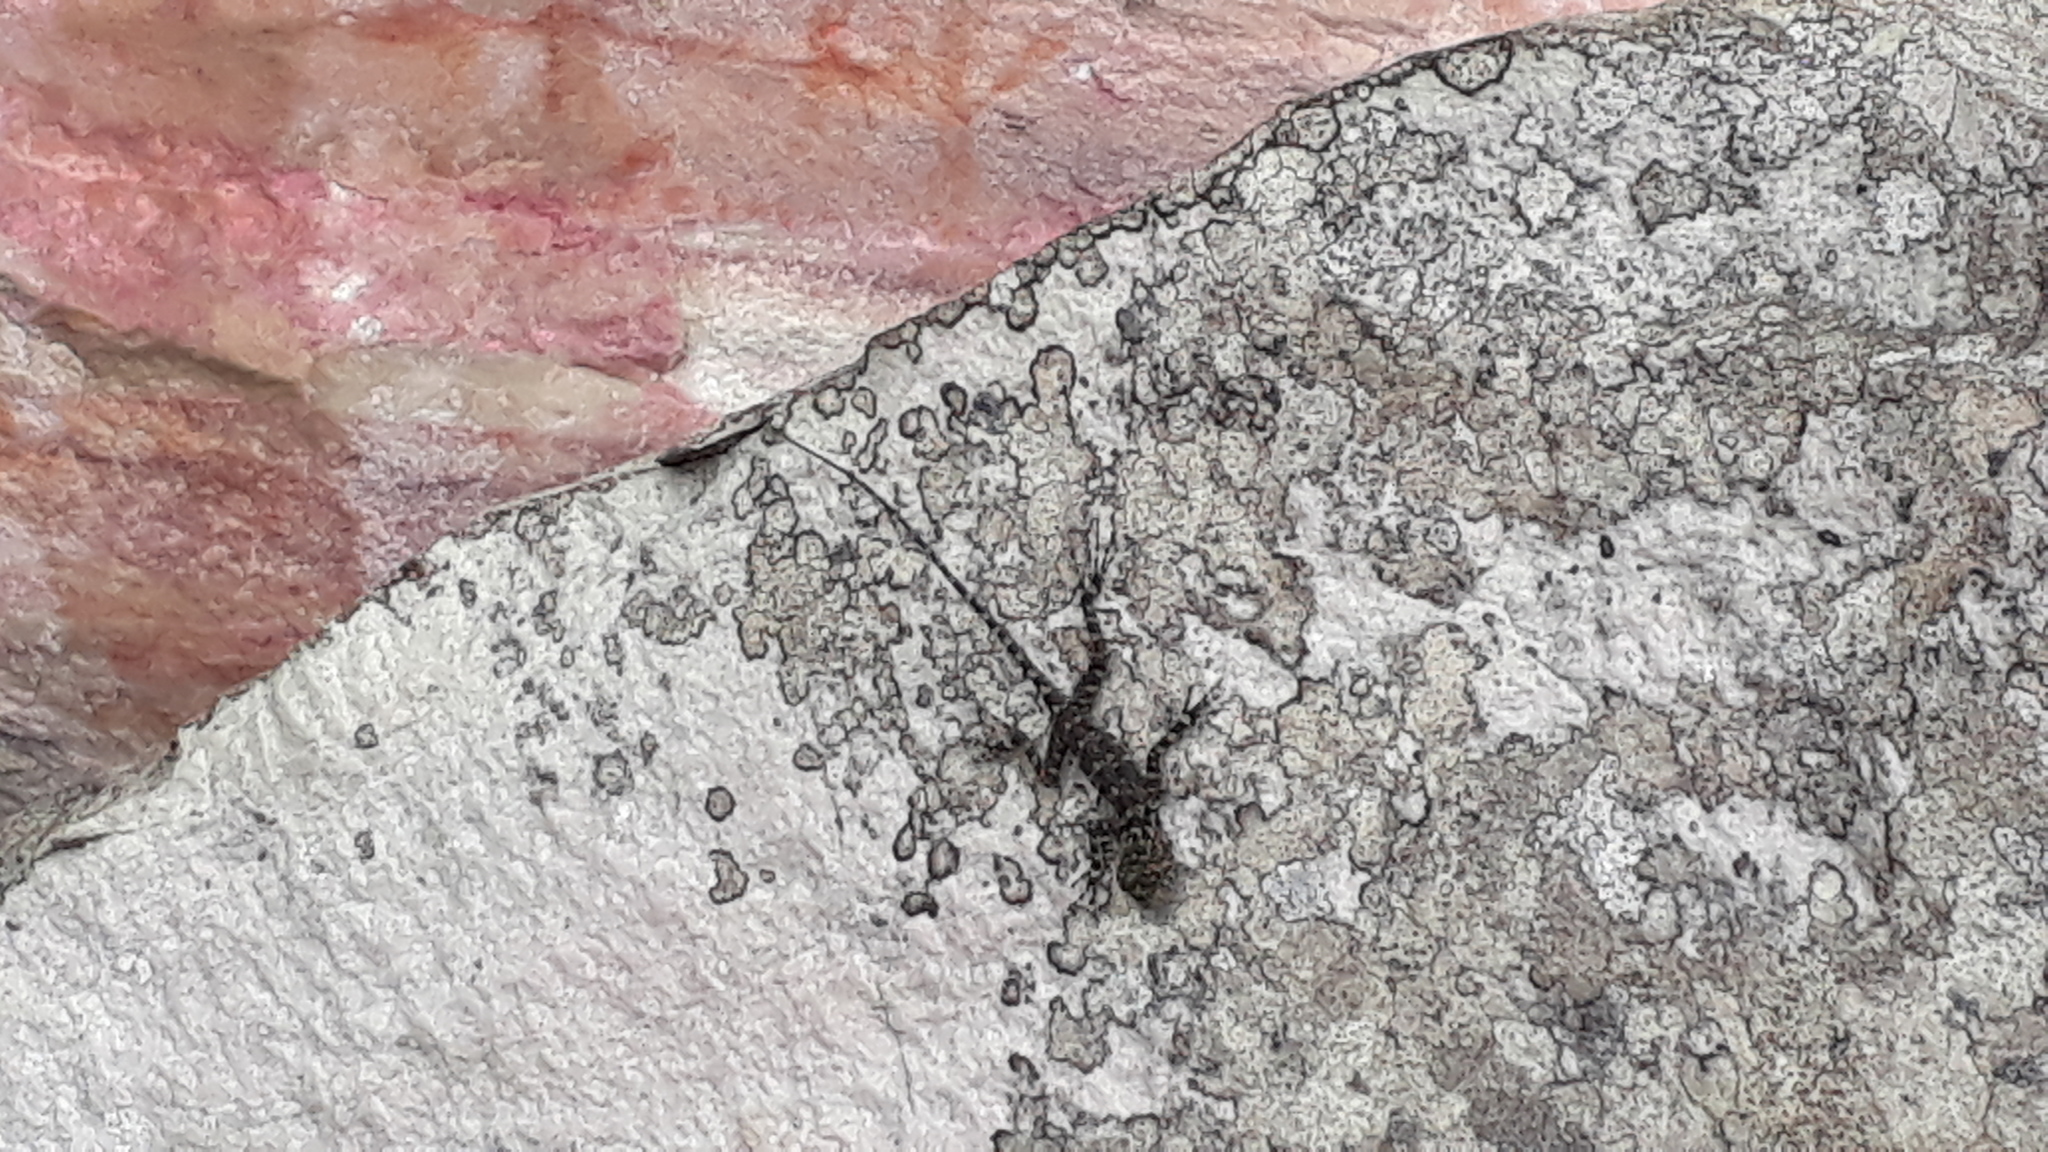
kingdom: Animalia
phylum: Chordata
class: Squamata
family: Tropiduridae
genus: Plica
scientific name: Plica plica
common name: Tree runner
